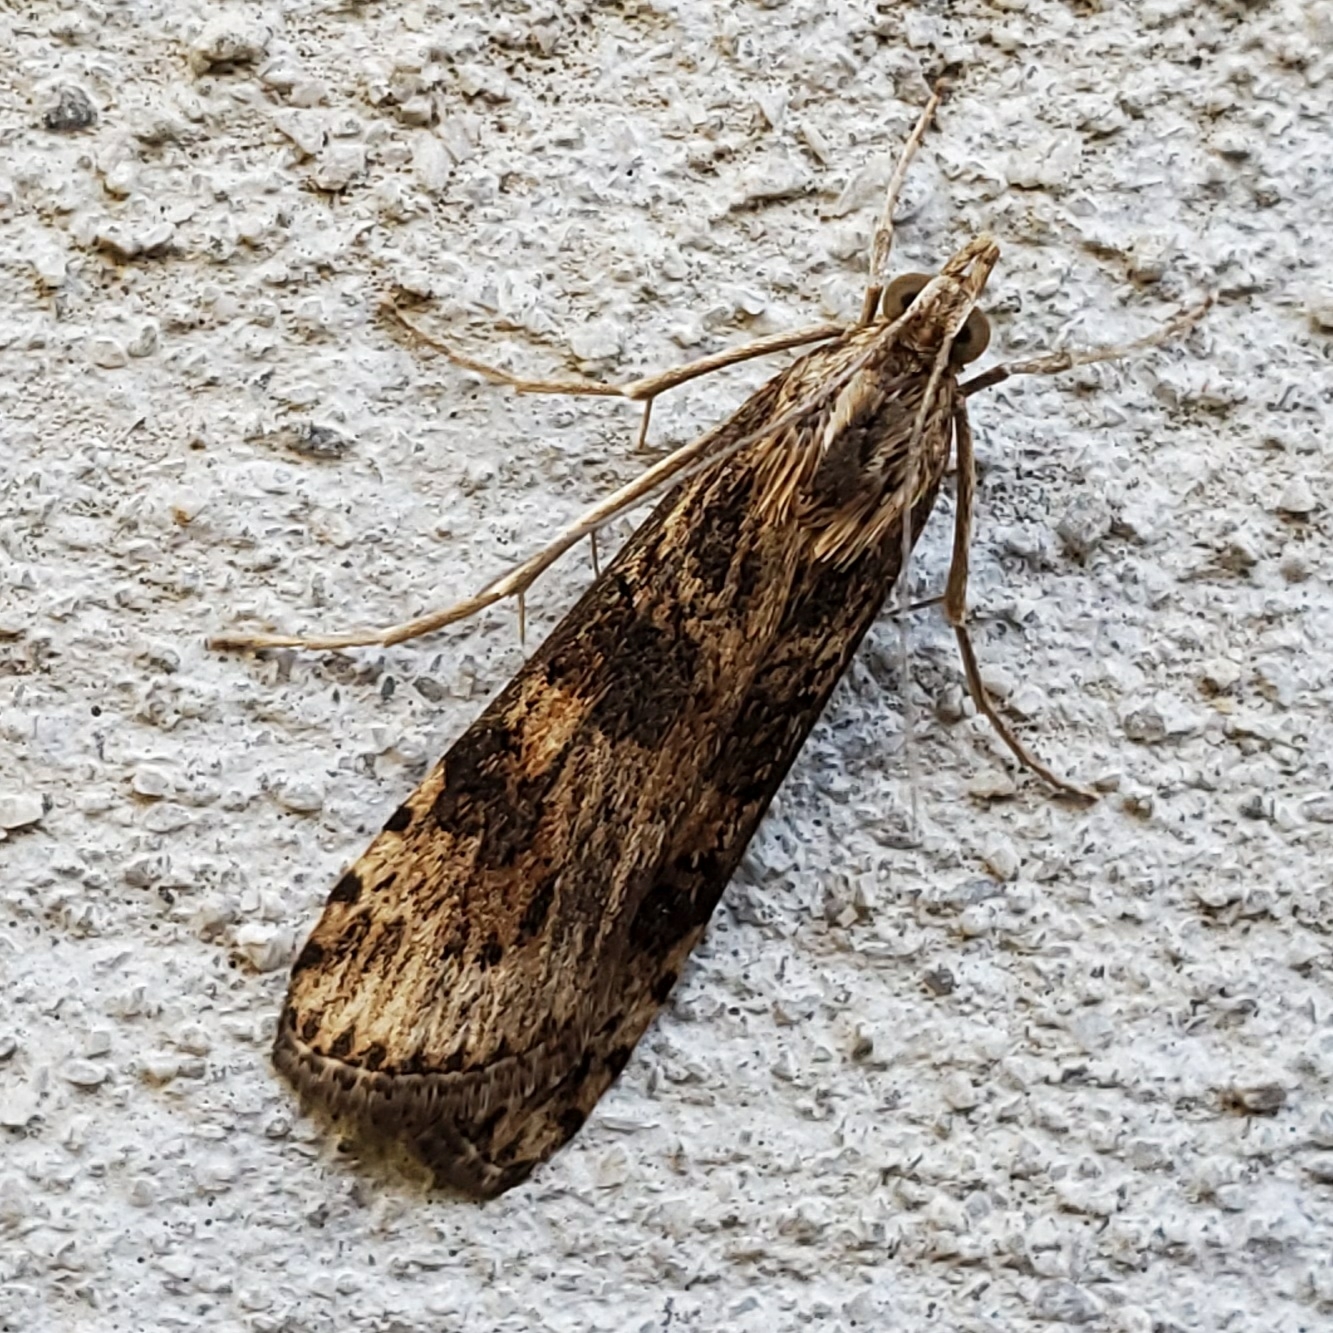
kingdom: Animalia
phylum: Arthropoda
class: Insecta
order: Lepidoptera
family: Crambidae
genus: Nomophila
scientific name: Nomophila nearctica
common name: American rush veneer
